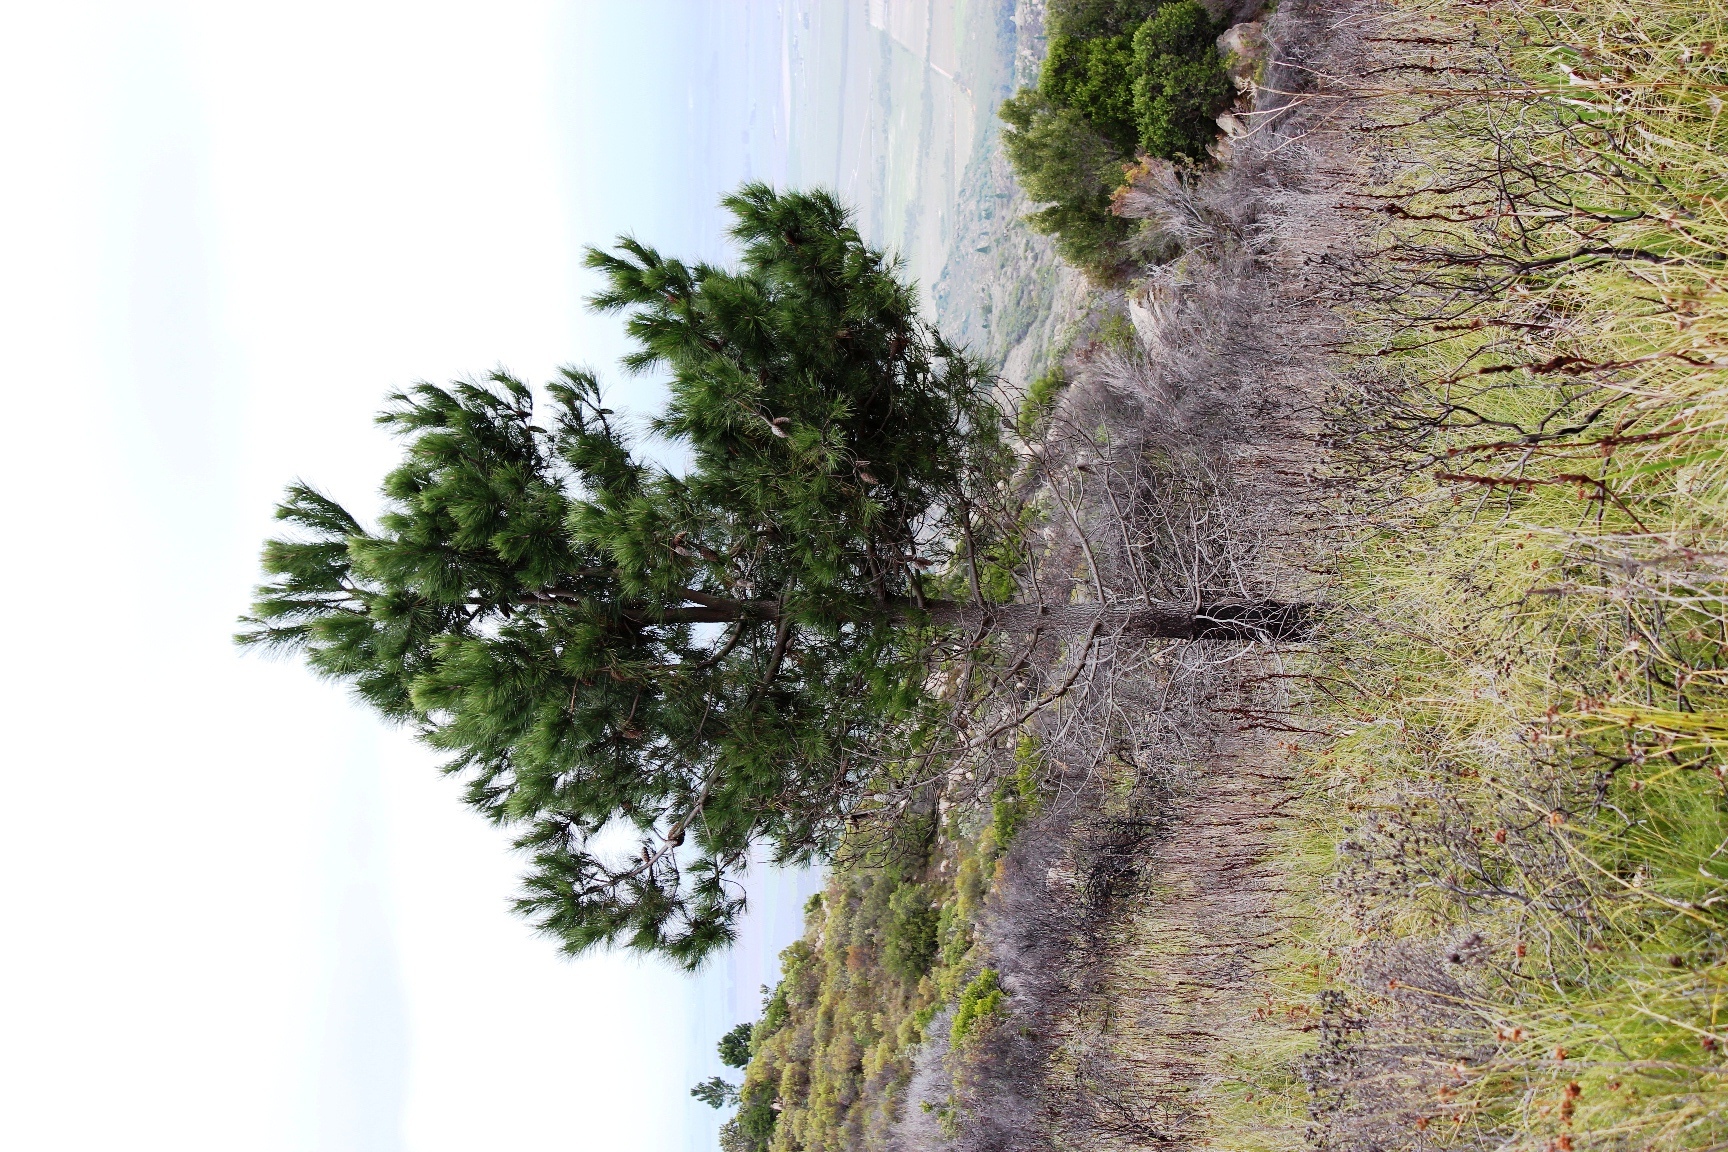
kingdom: Plantae
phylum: Tracheophyta
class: Pinopsida
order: Pinales
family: Pinaceae
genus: Pinus
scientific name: Pinus pinaster
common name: Maritime pine
